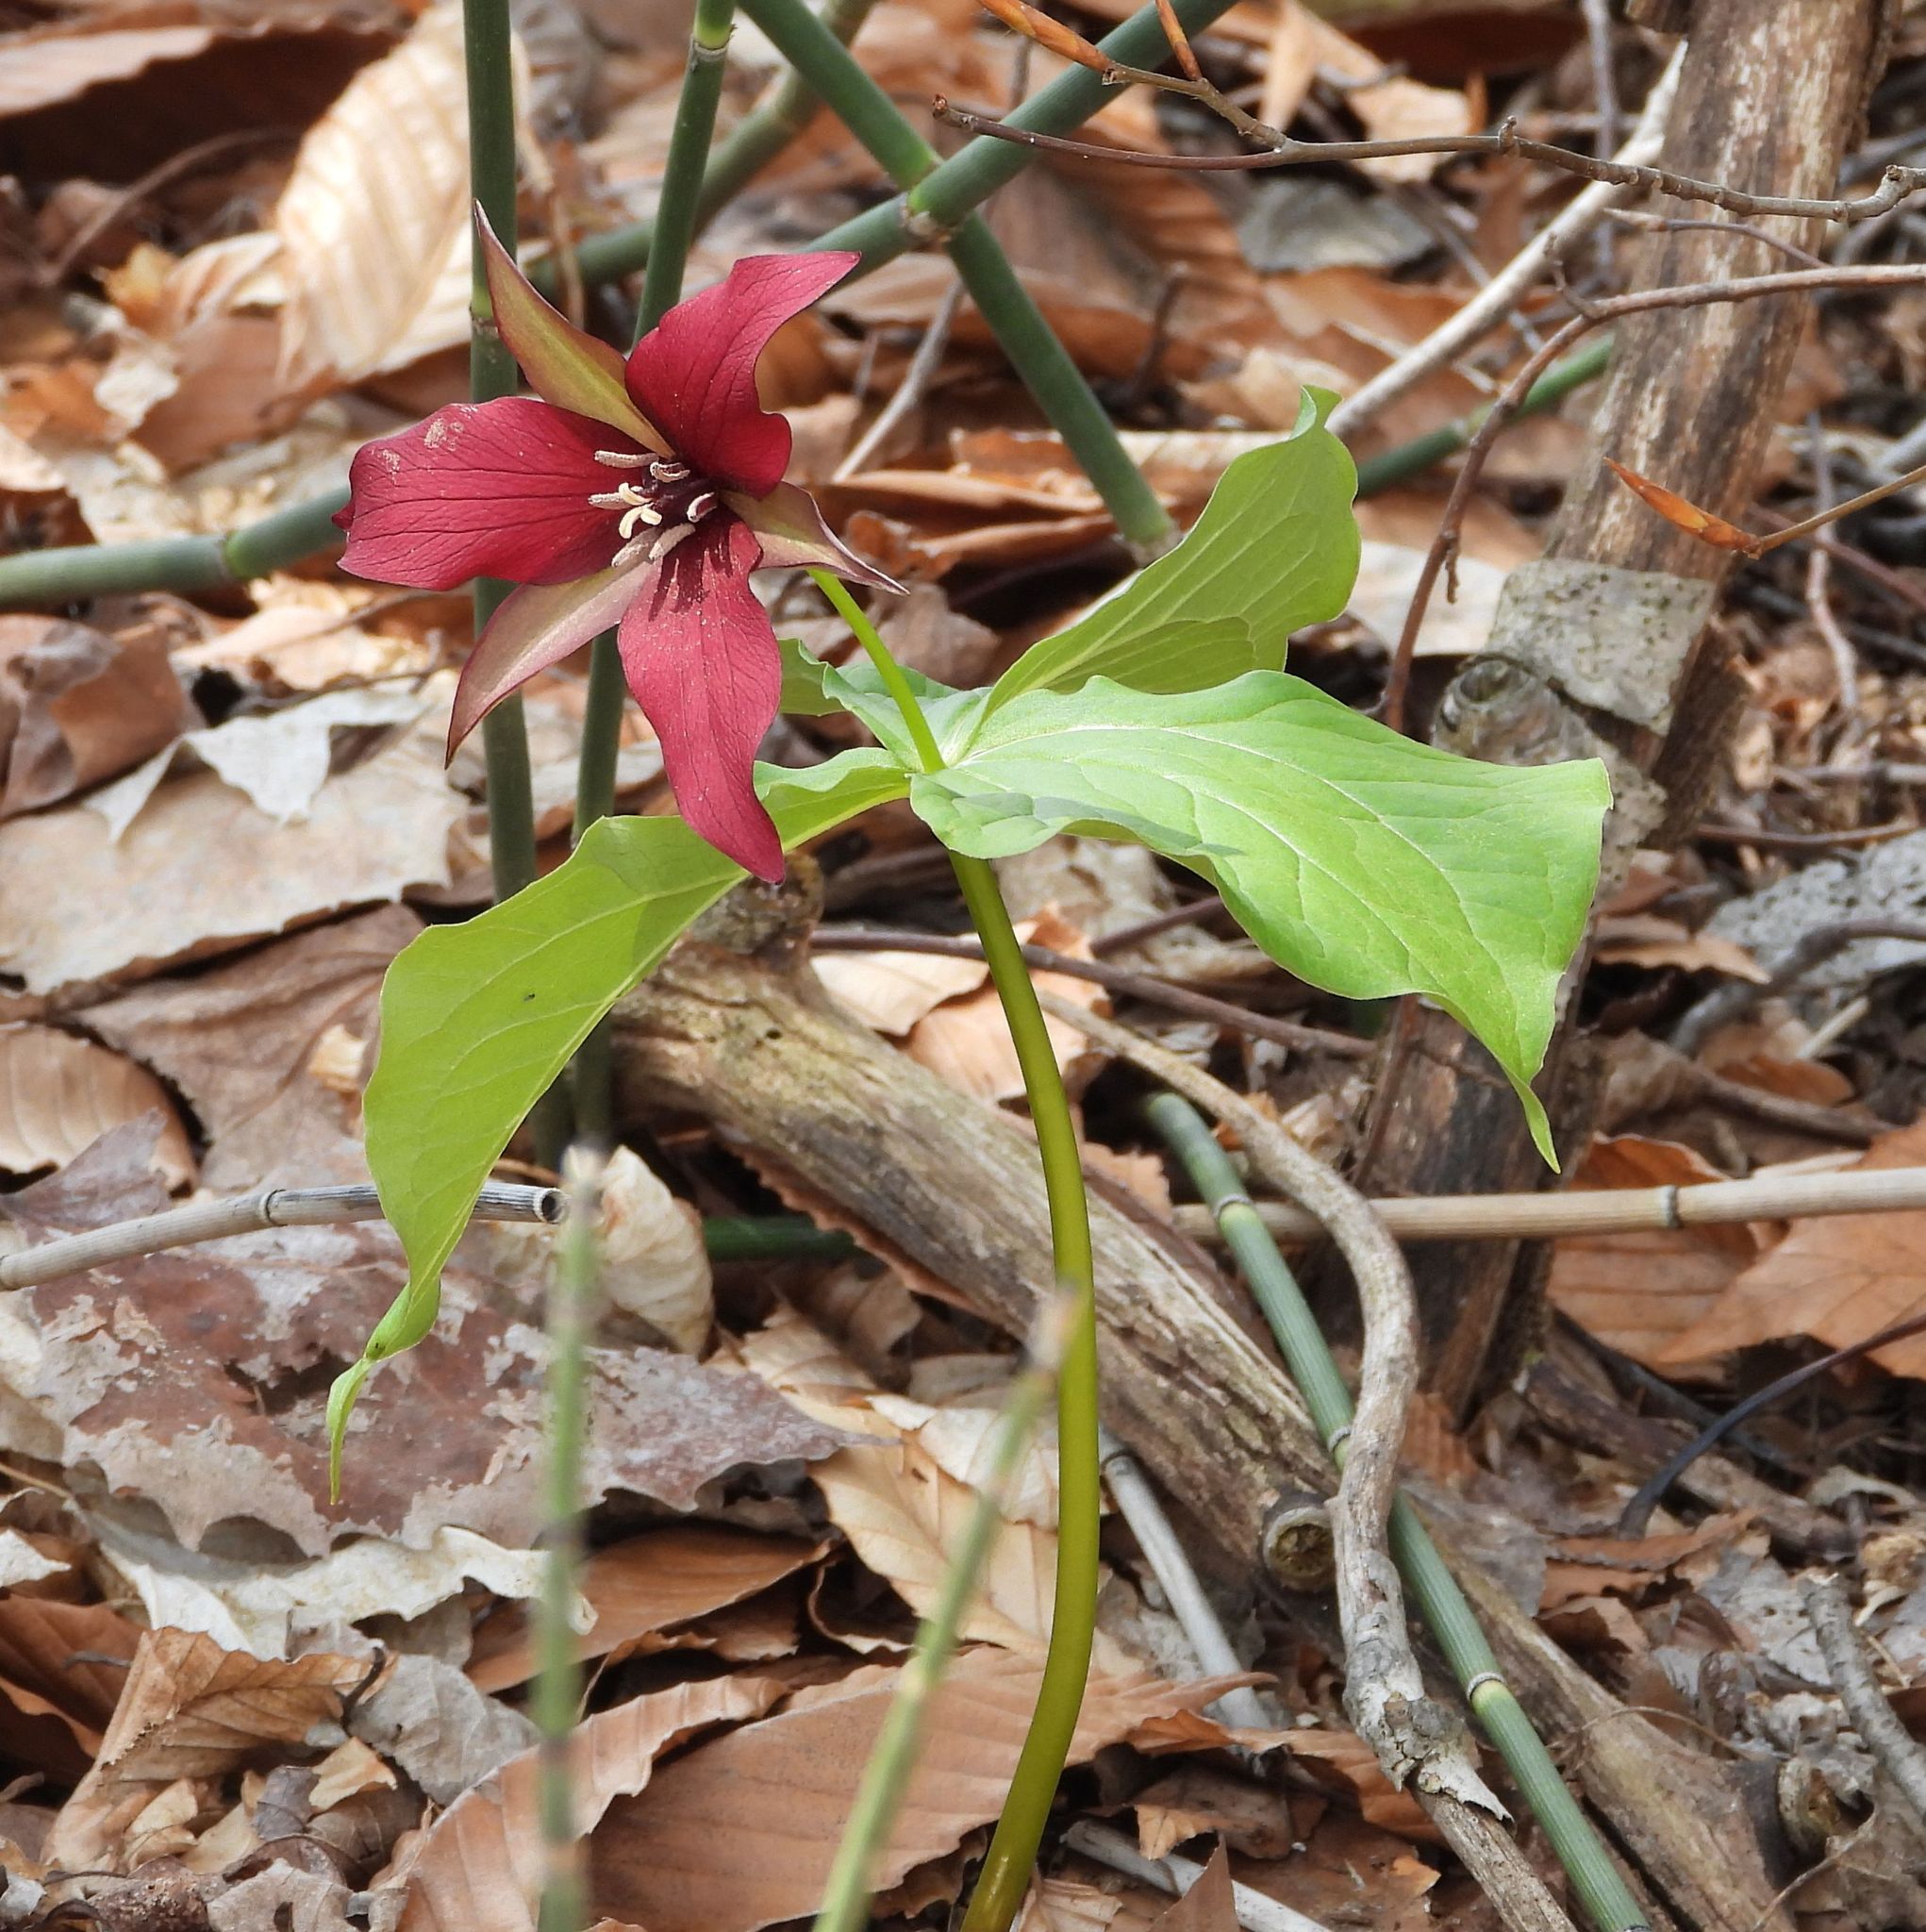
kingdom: Plantae
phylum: Tracheophyta
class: Liliopsida
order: Liliales
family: Melanthiaceae
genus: Trillium
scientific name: Trillium erectum
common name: Purple trillium
